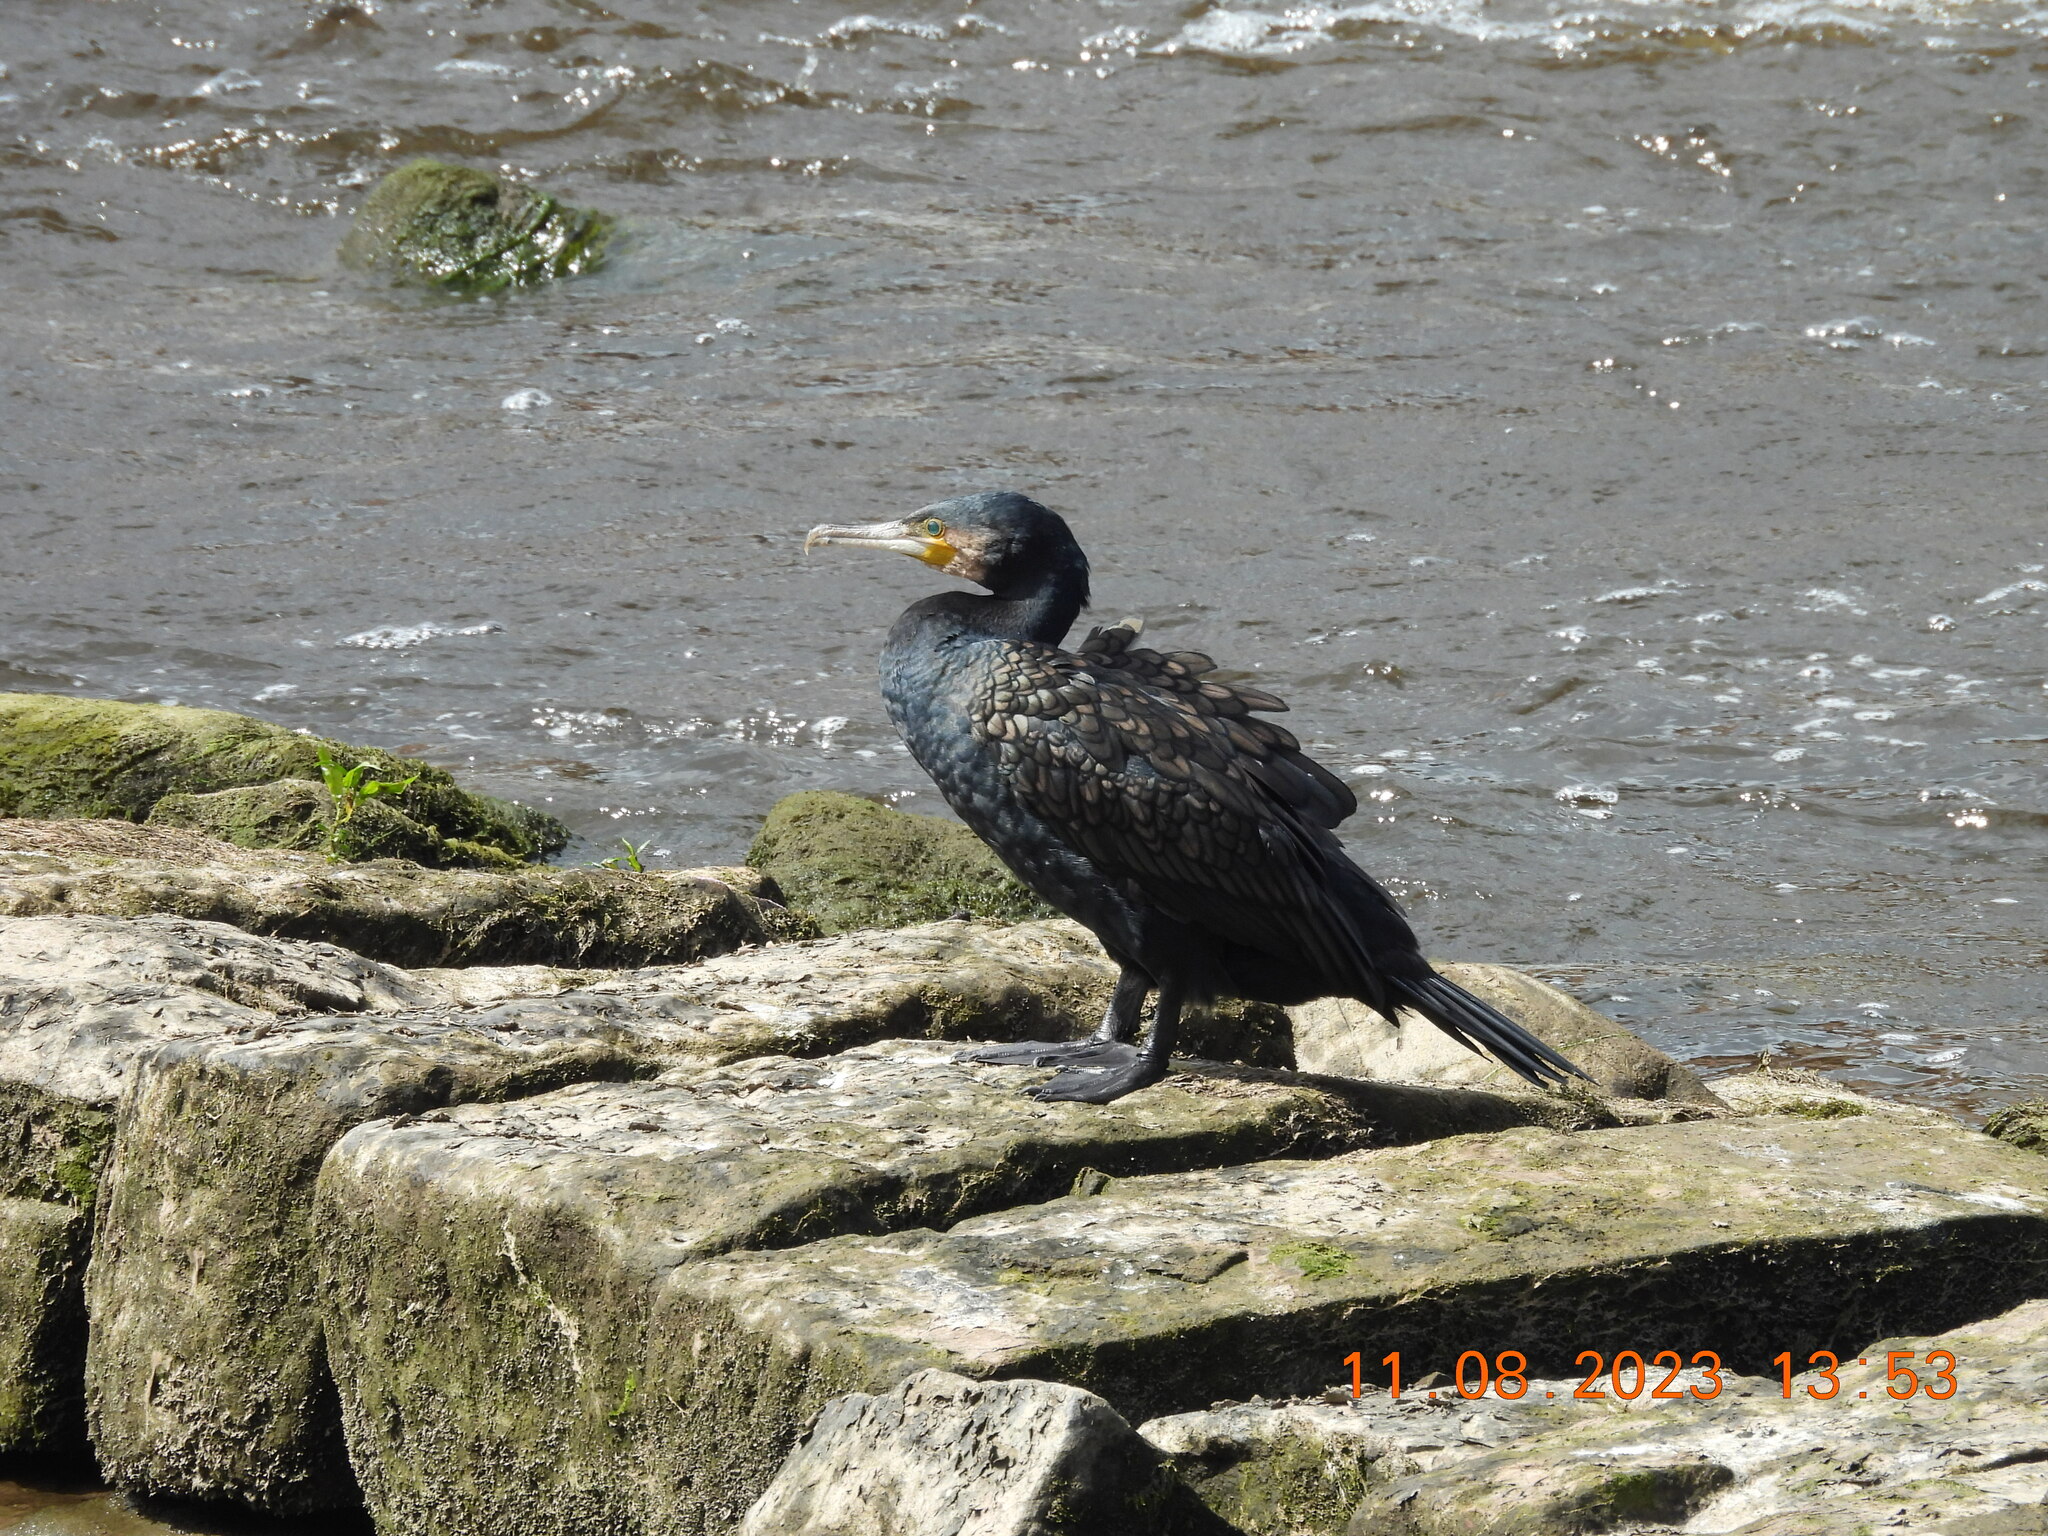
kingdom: Animalia
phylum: Chordata
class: Aves
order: Suliformes
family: Phalacrocoracidae
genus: Phalacrocorax
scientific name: Phalacrocorax carbo
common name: Great cormorant
